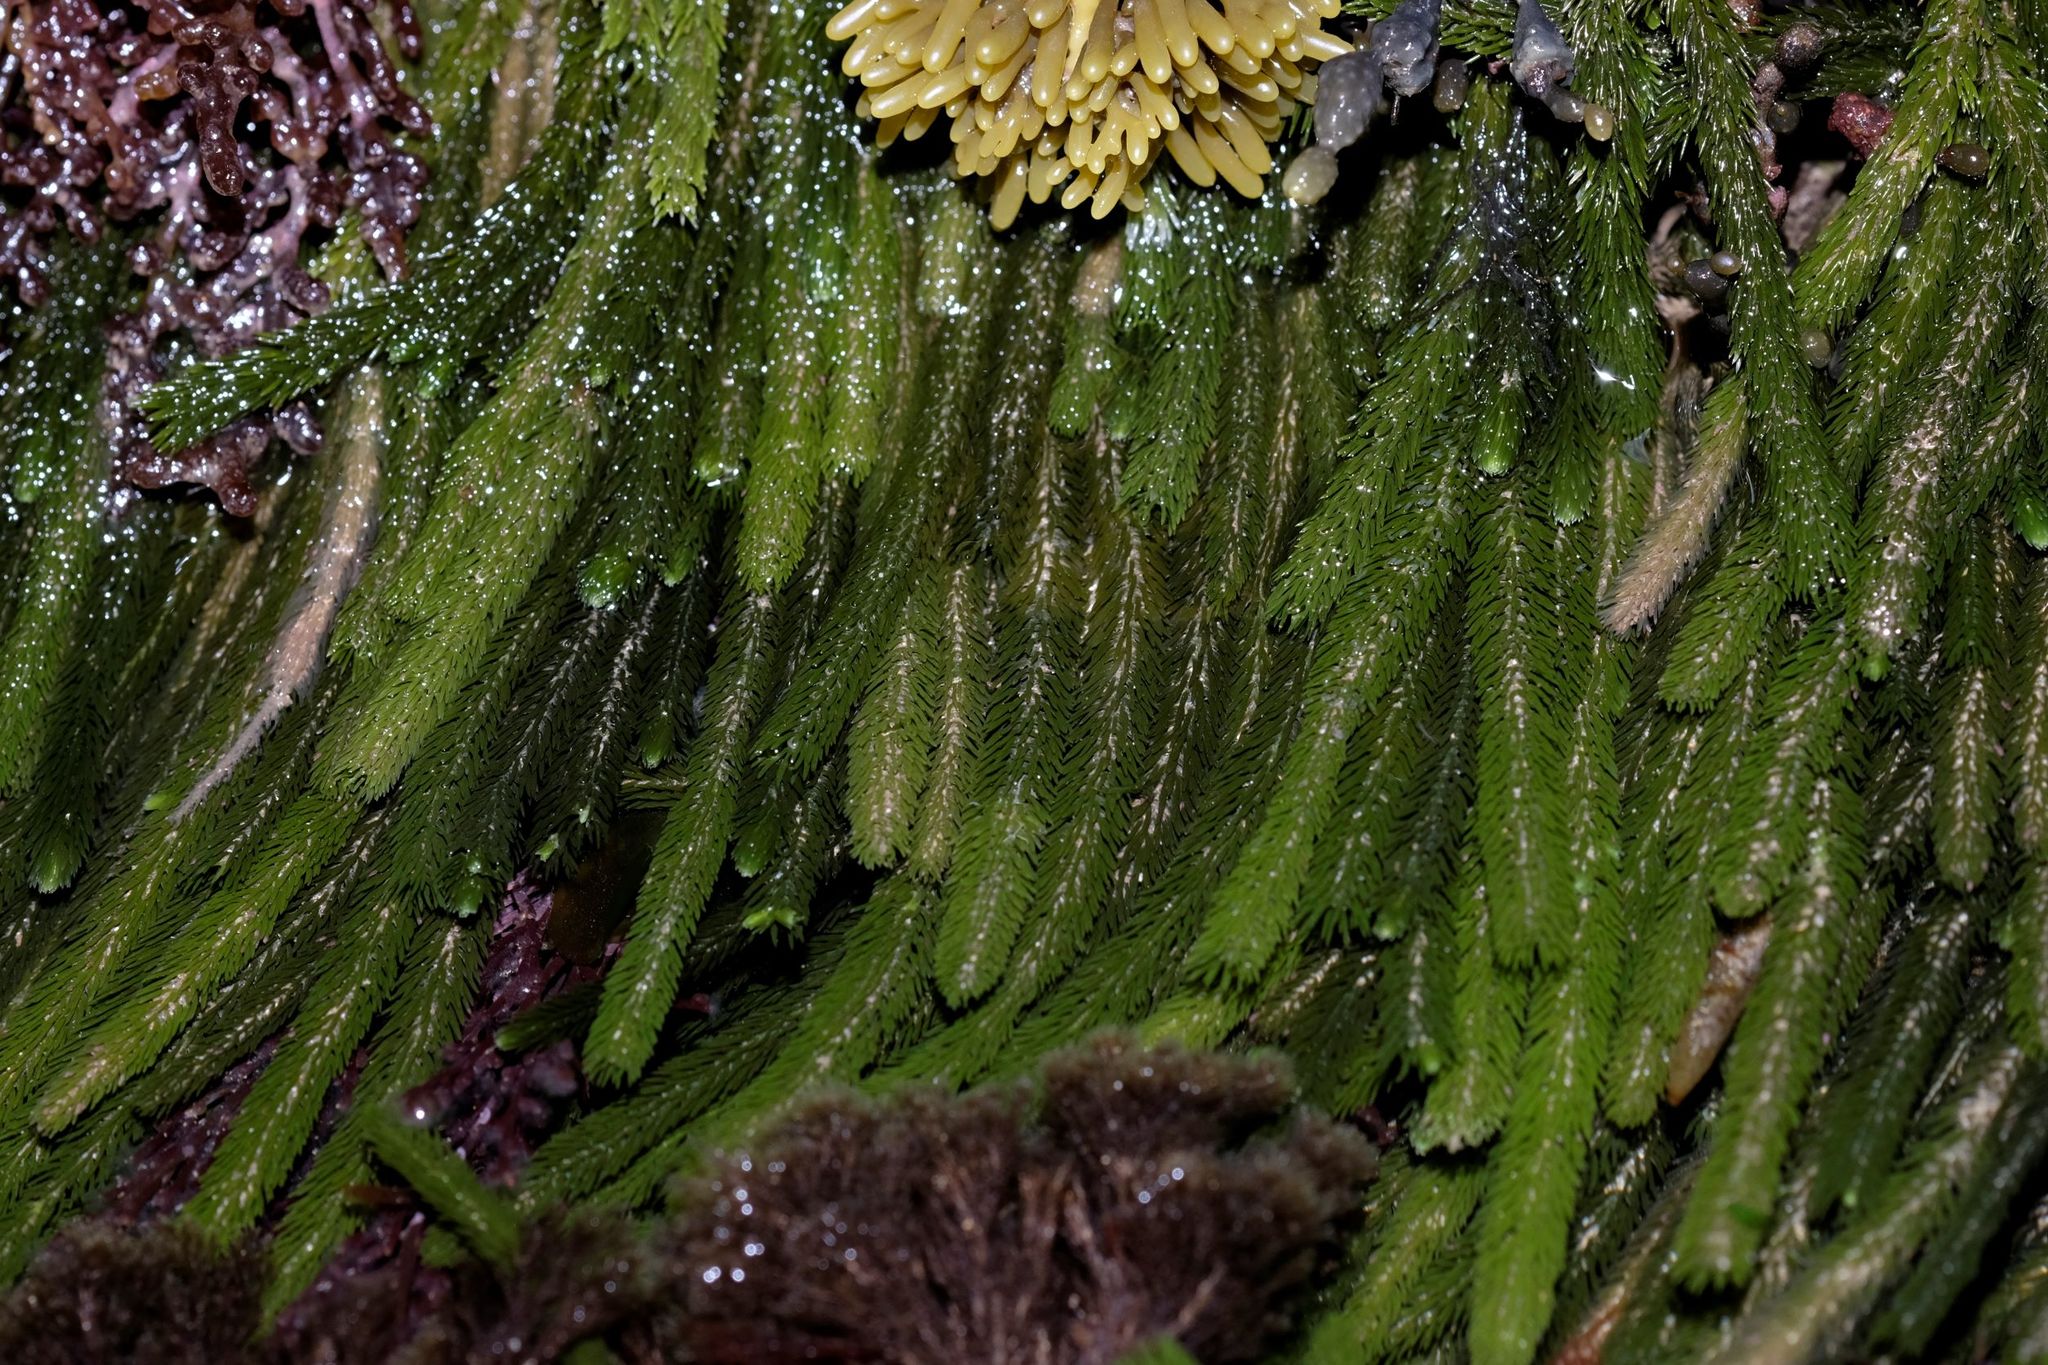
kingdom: Plantae
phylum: Chlorophyta
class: Ulvophyceae
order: Bryopsidales
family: Caulerpaceae
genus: Caulerpa
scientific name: Caulerpa brownii
